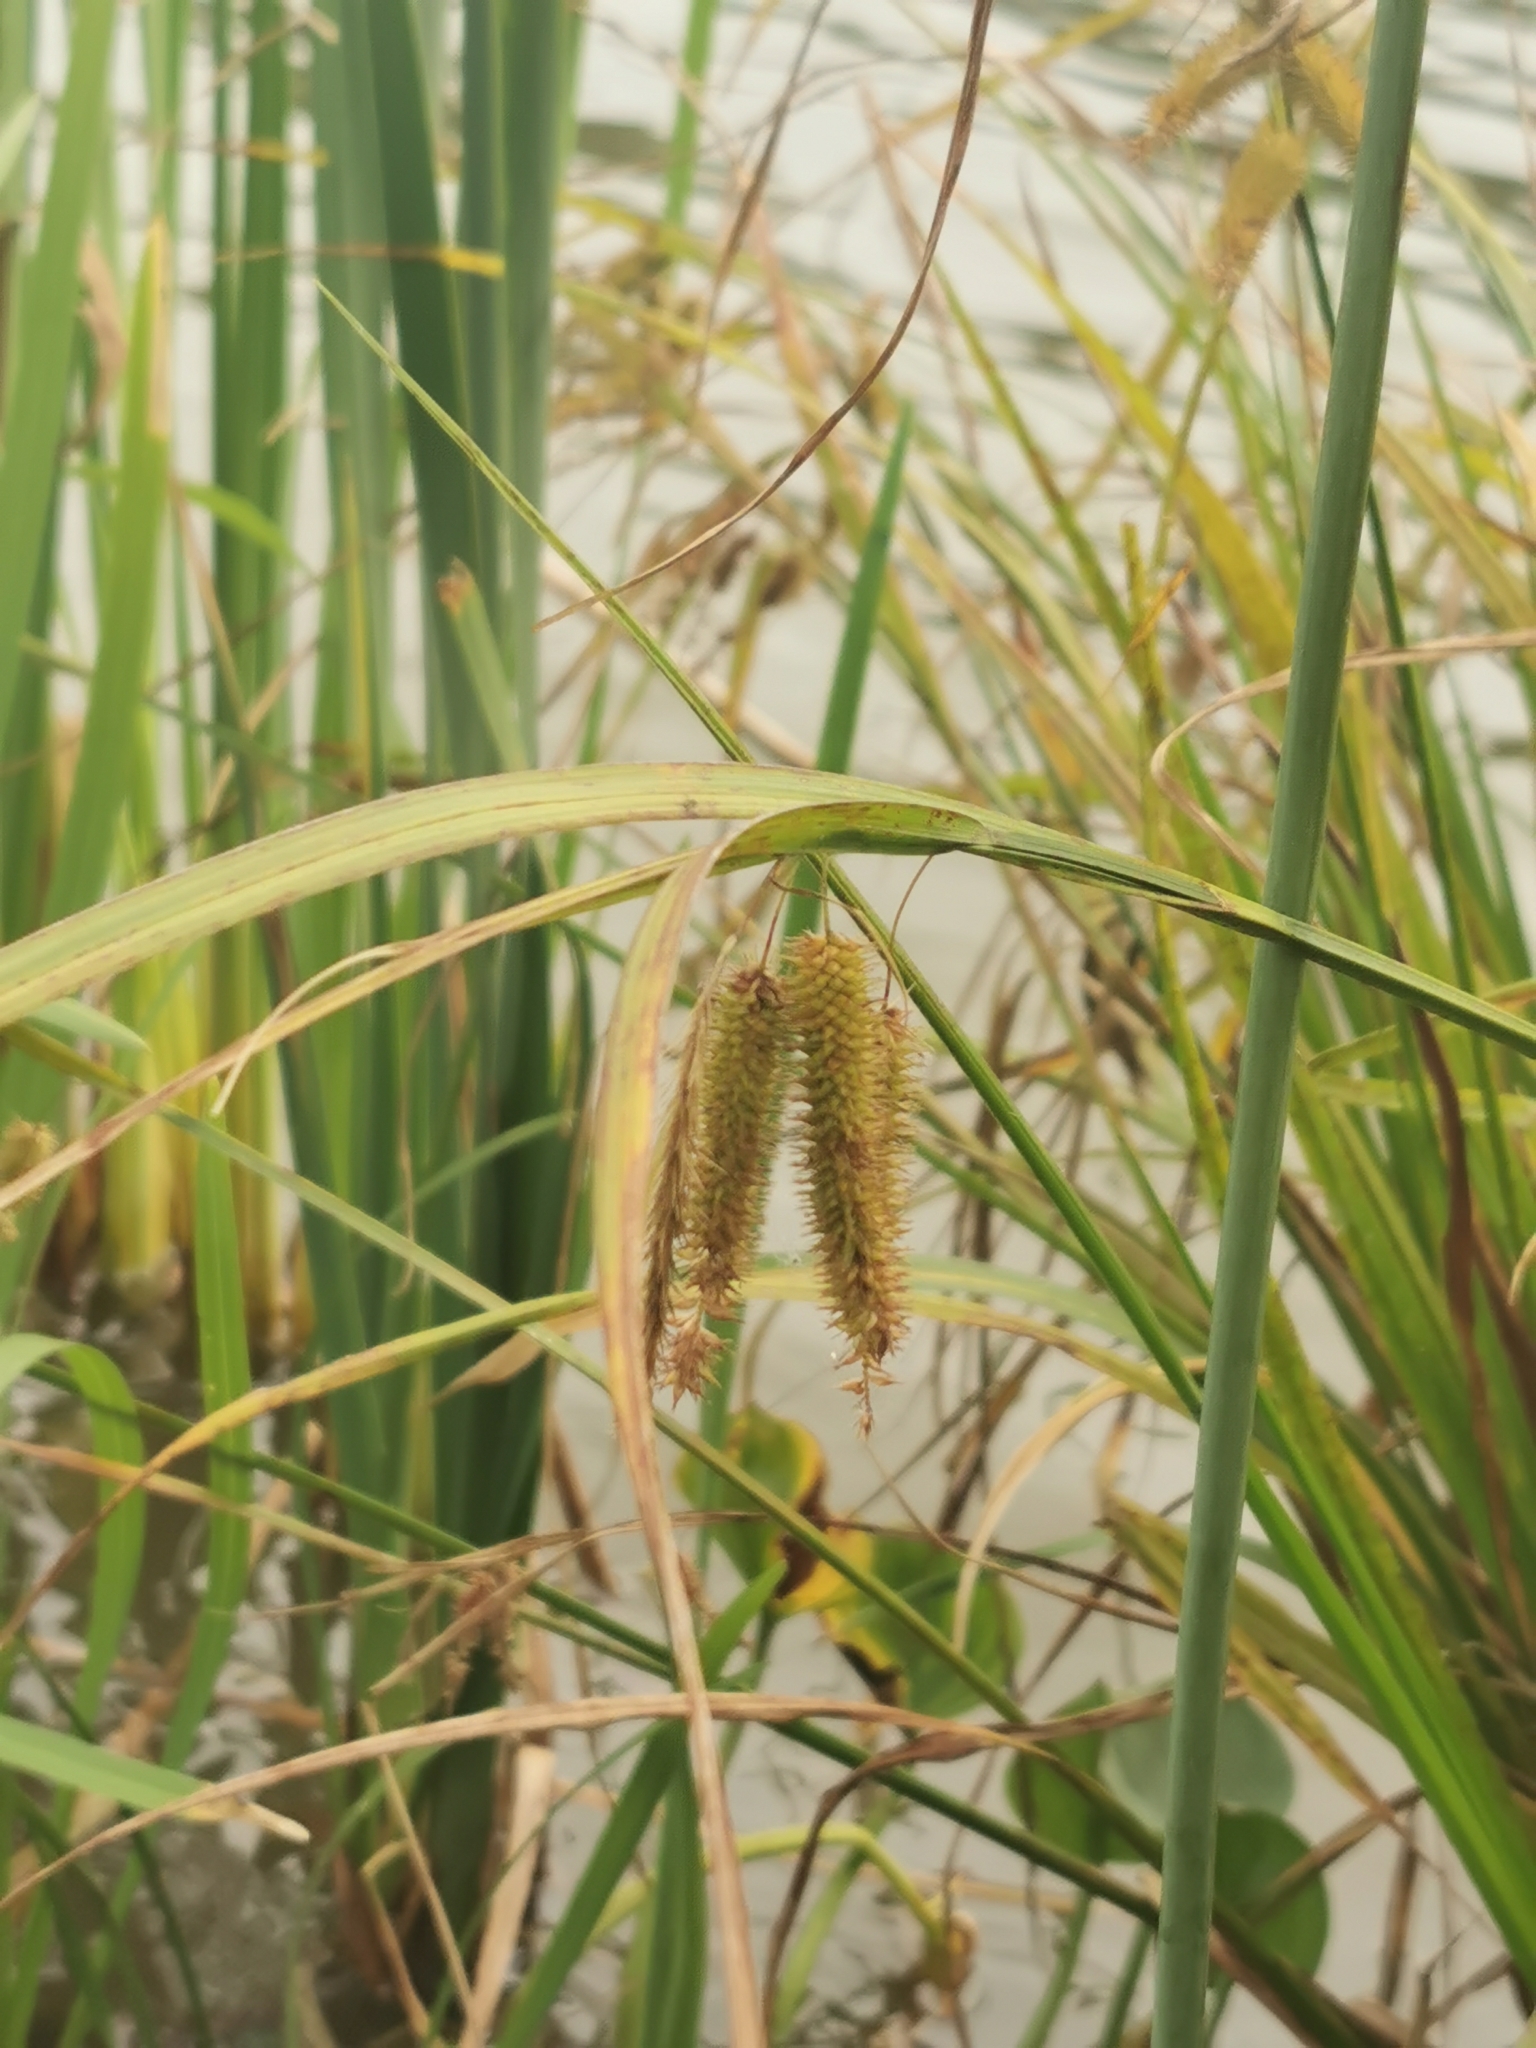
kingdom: Plantae
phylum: Tracheophyta
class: Liliopsida
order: Poales
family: Cyperaceae
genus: Carex
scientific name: Carex pseudocyperus
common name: Cyperus sedge
